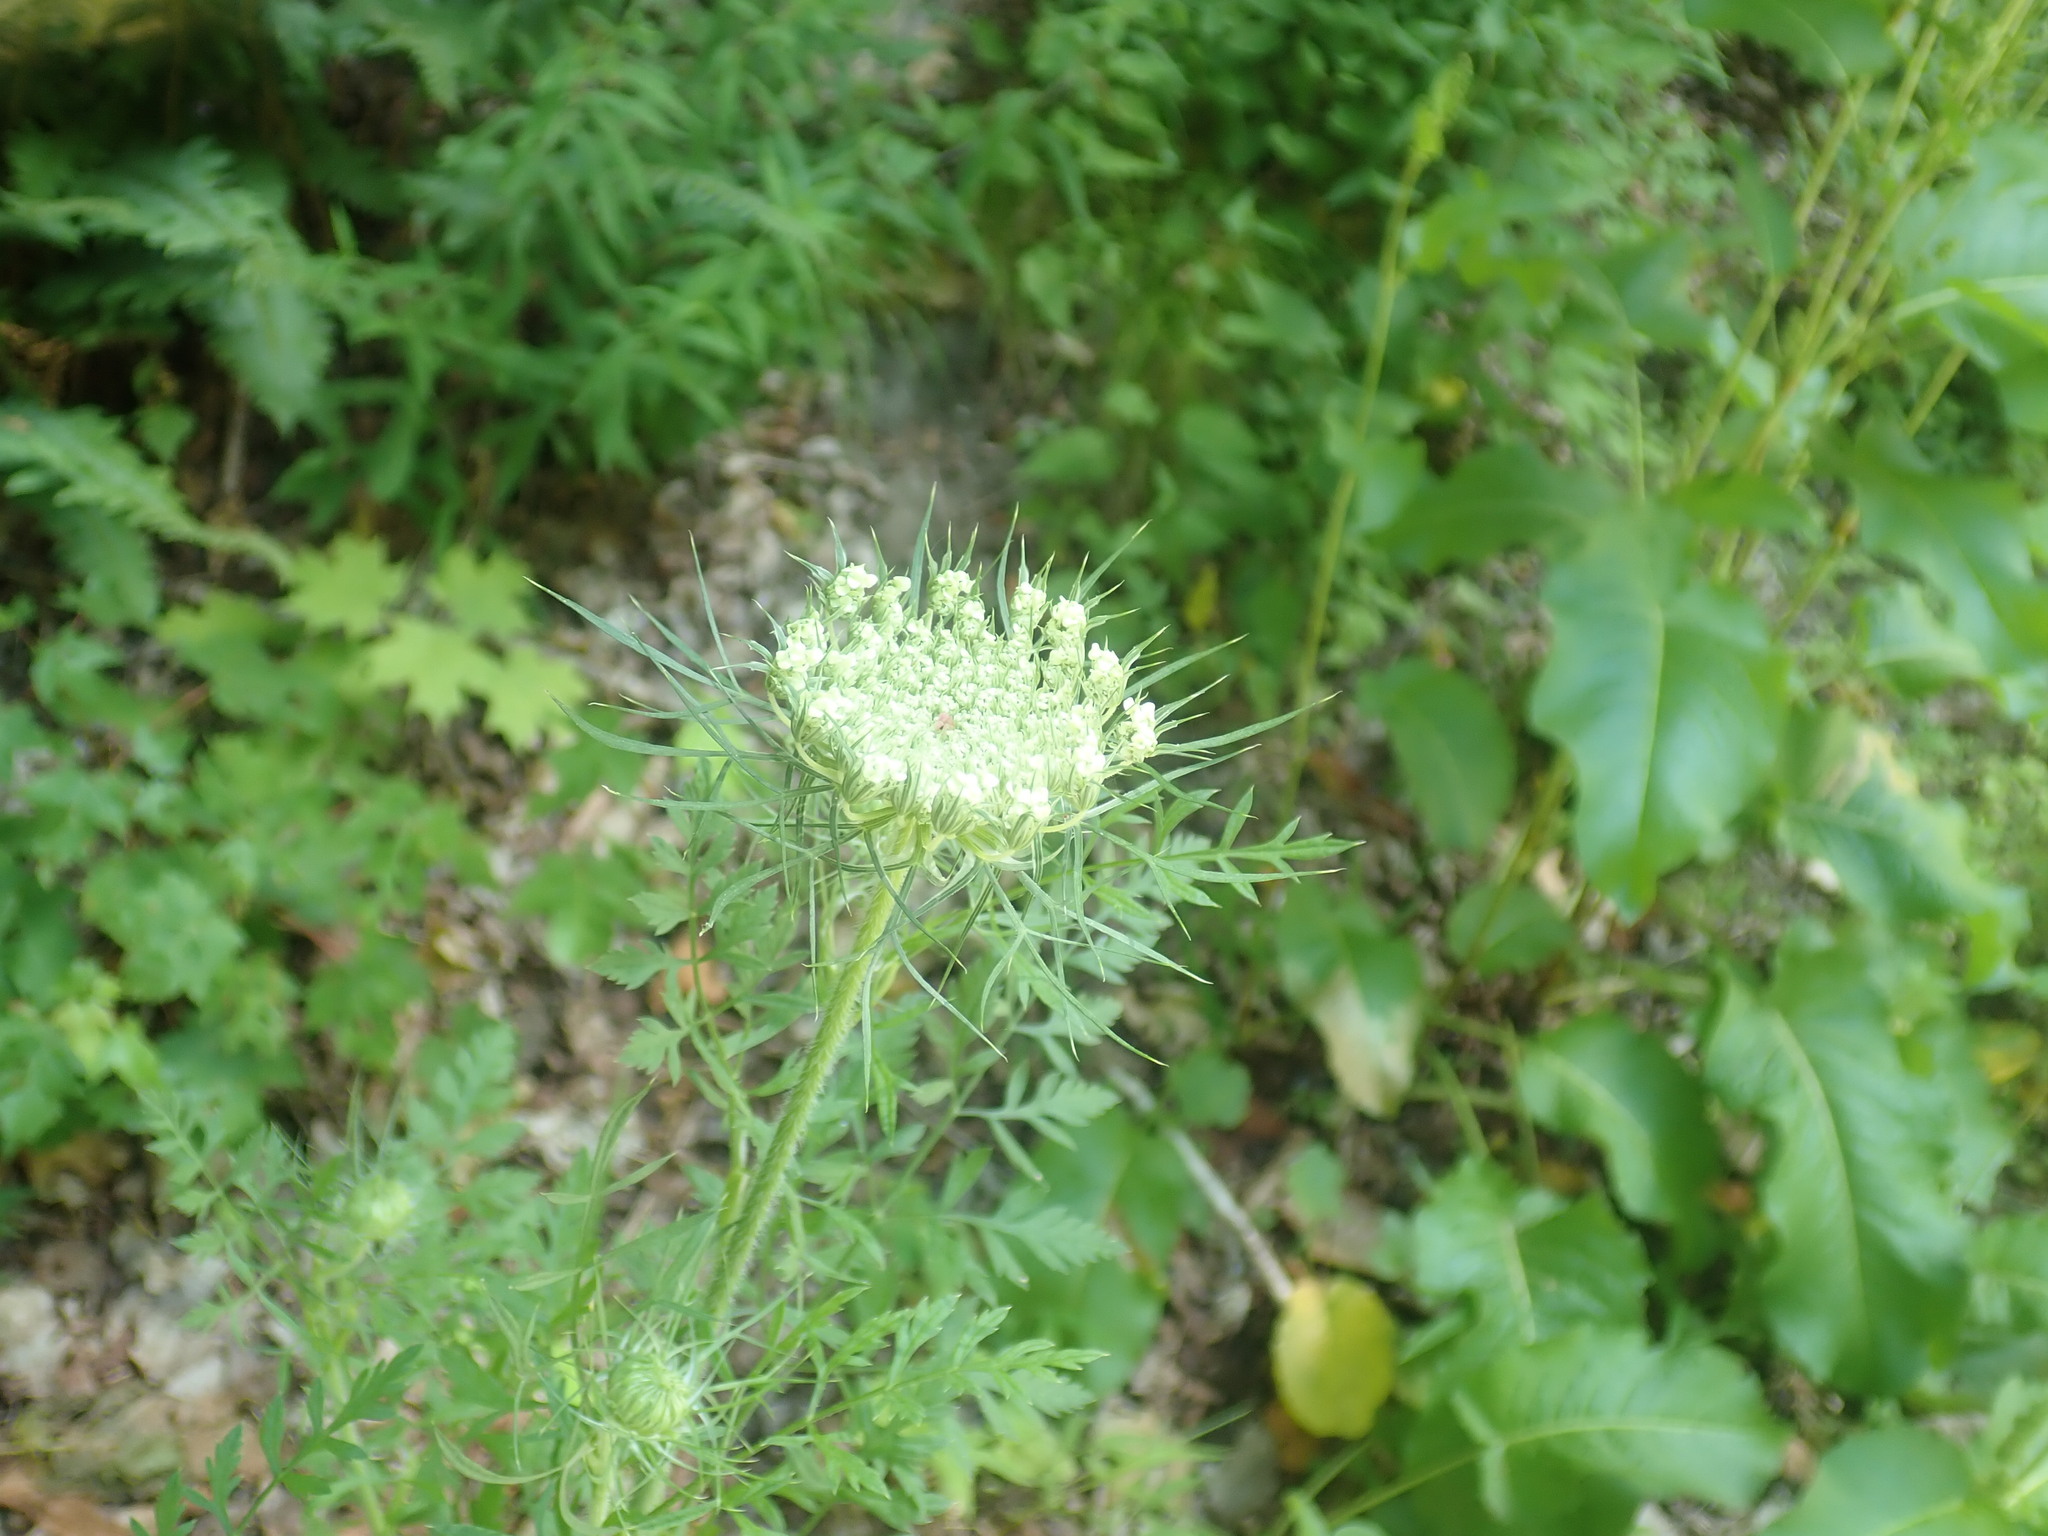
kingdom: Plantae
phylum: Tracheophyta
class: Magnoliopsida
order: Apiales
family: Apiaceae
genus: Daucus
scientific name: Daucus carota
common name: Wild carrot
